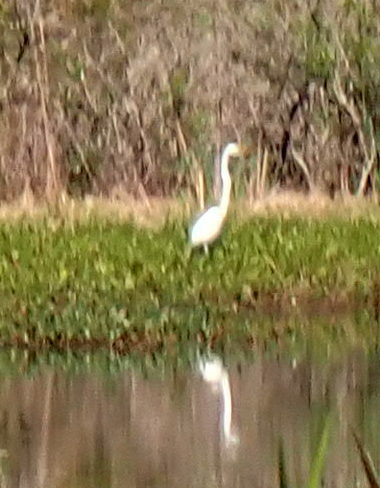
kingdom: Animalia
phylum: Chordata
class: Aves
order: Pelecaniformes
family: Ardeidae
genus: Ardea
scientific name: Ardea alba
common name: Great egret
